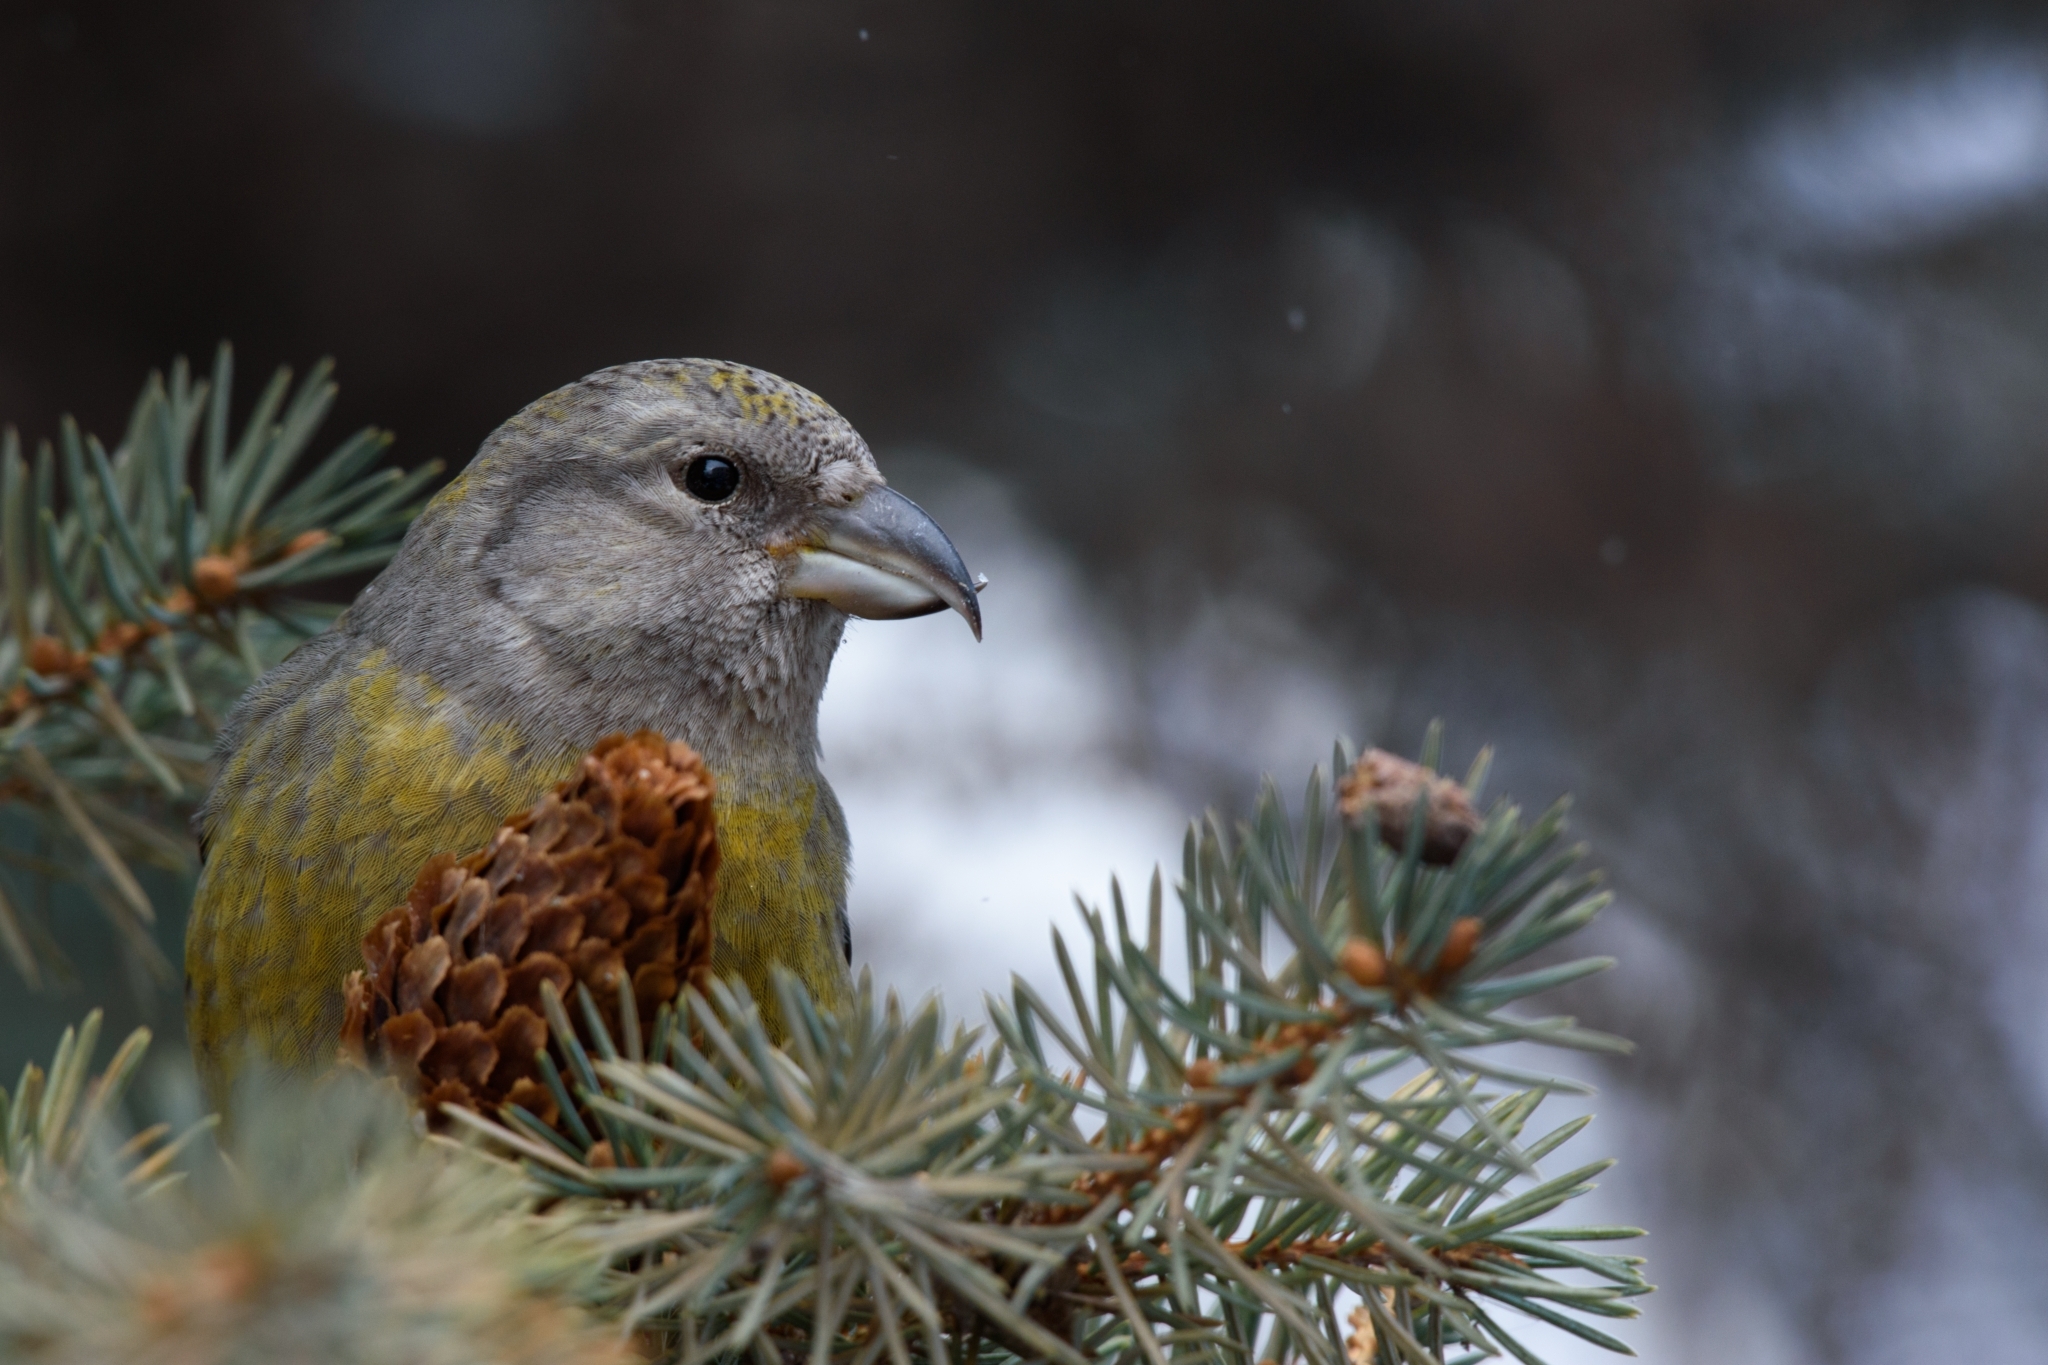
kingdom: Animalia
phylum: Chordata
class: Aves
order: Passeriformes
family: Fringillidae
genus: Loxia
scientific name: Loxia curvirostra
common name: Red crossbill
